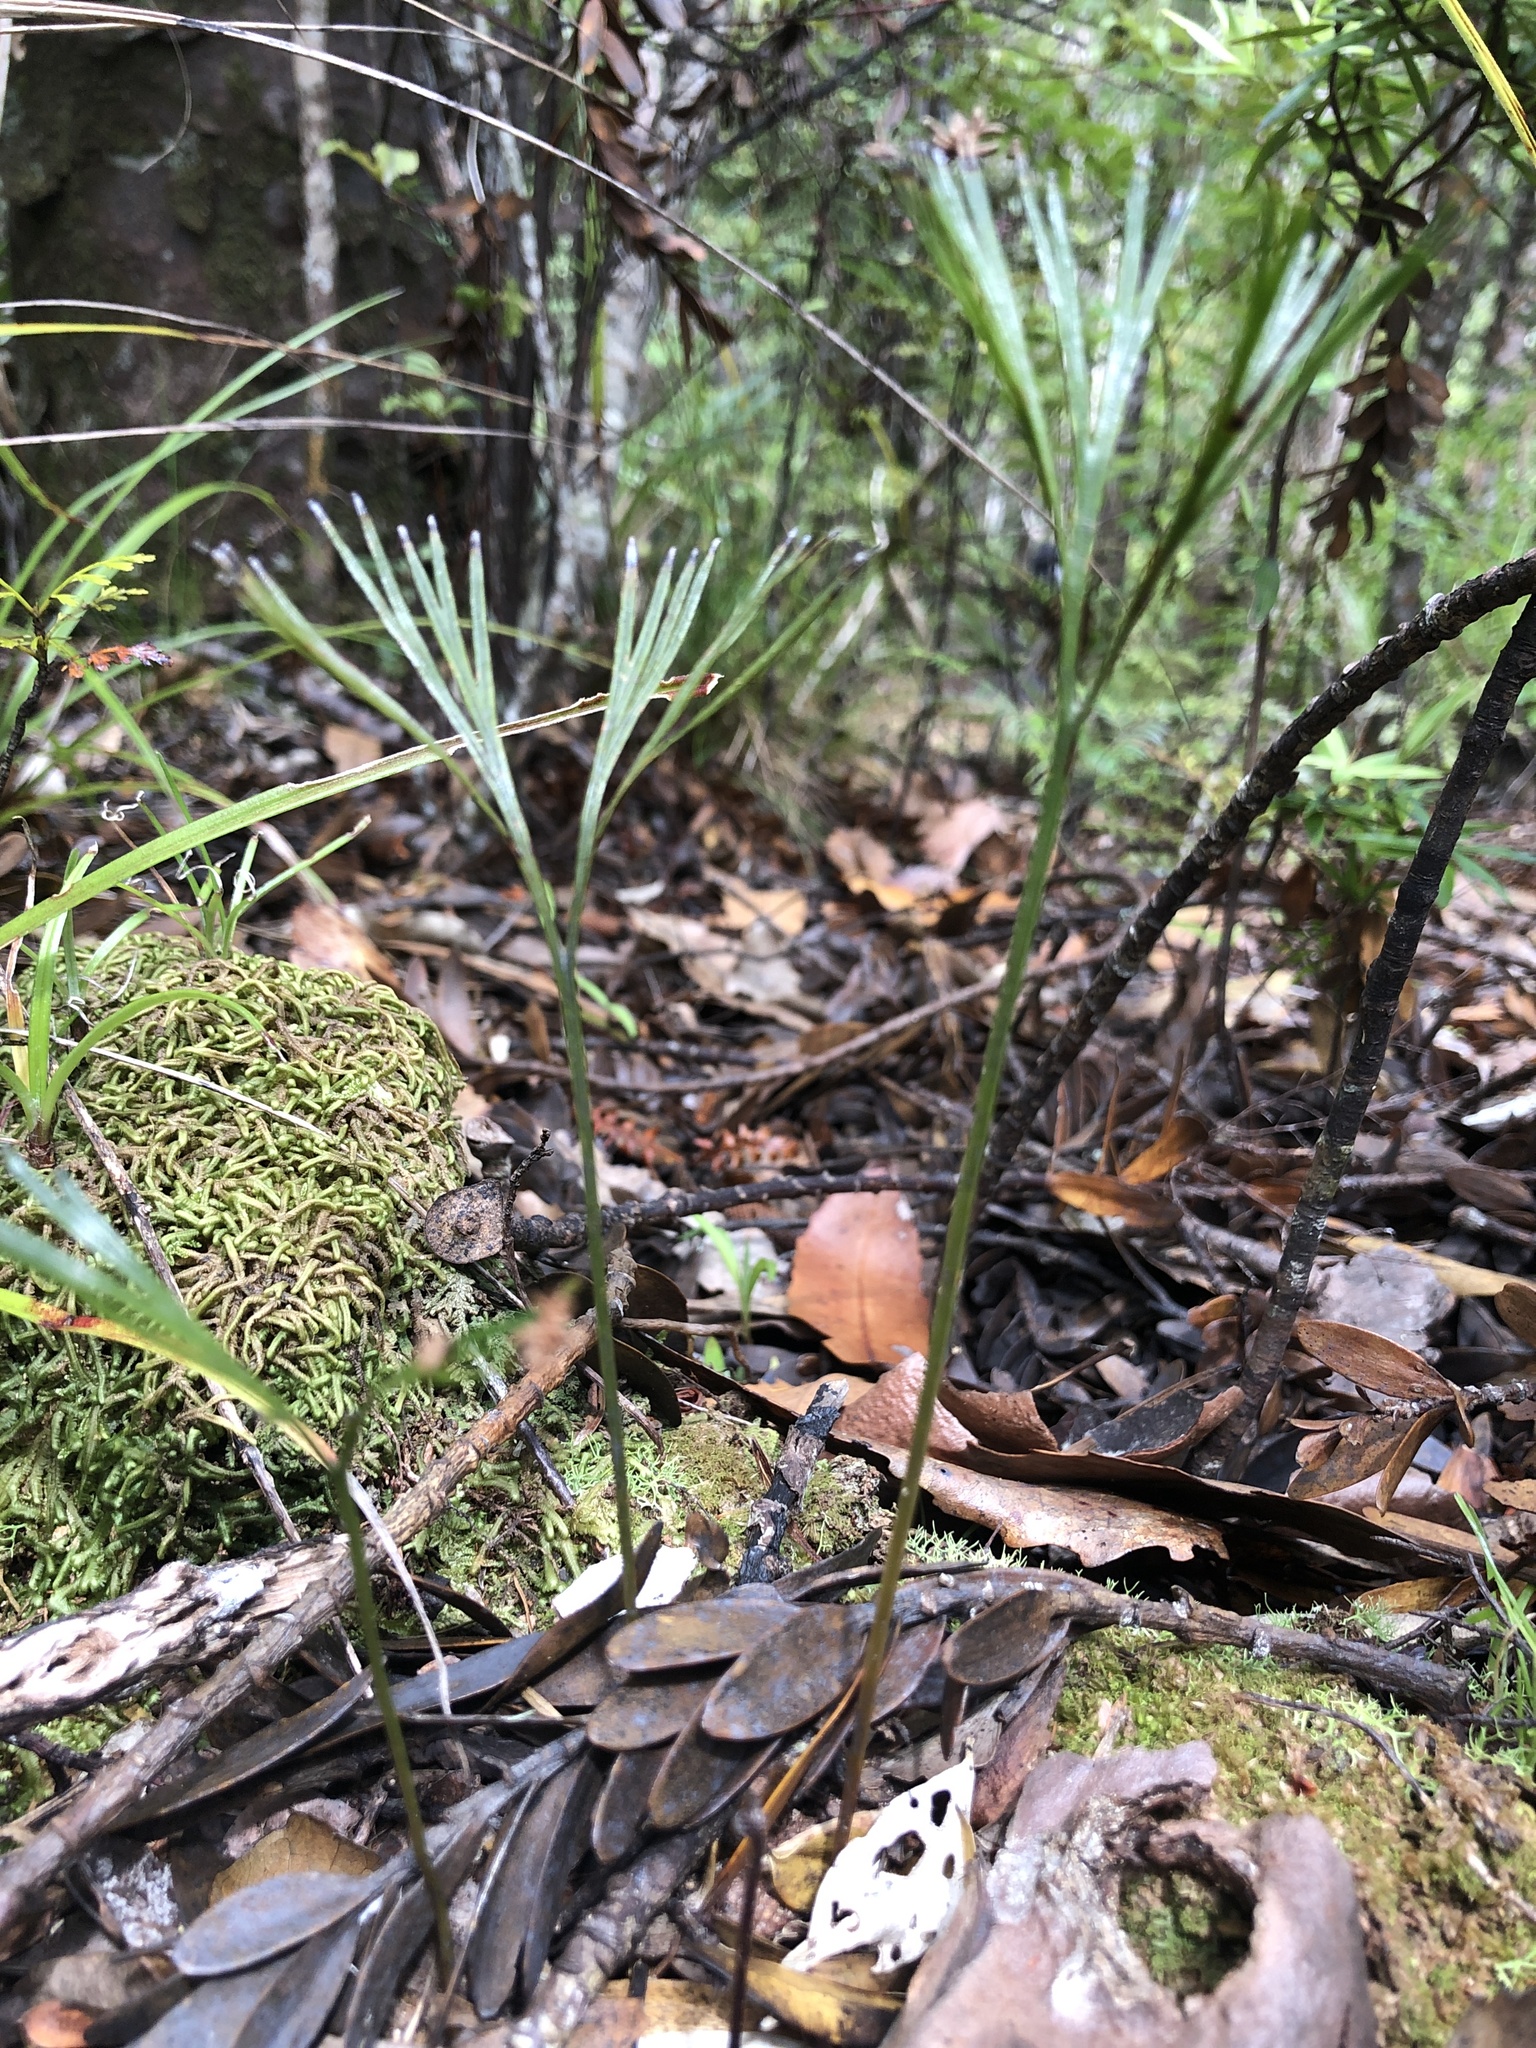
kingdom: Plantae
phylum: Tracheophyta
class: Polypodiopsida
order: Schizaeales
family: Schizaeaceae
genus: Schizaea
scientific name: Schizaea dichotoma
